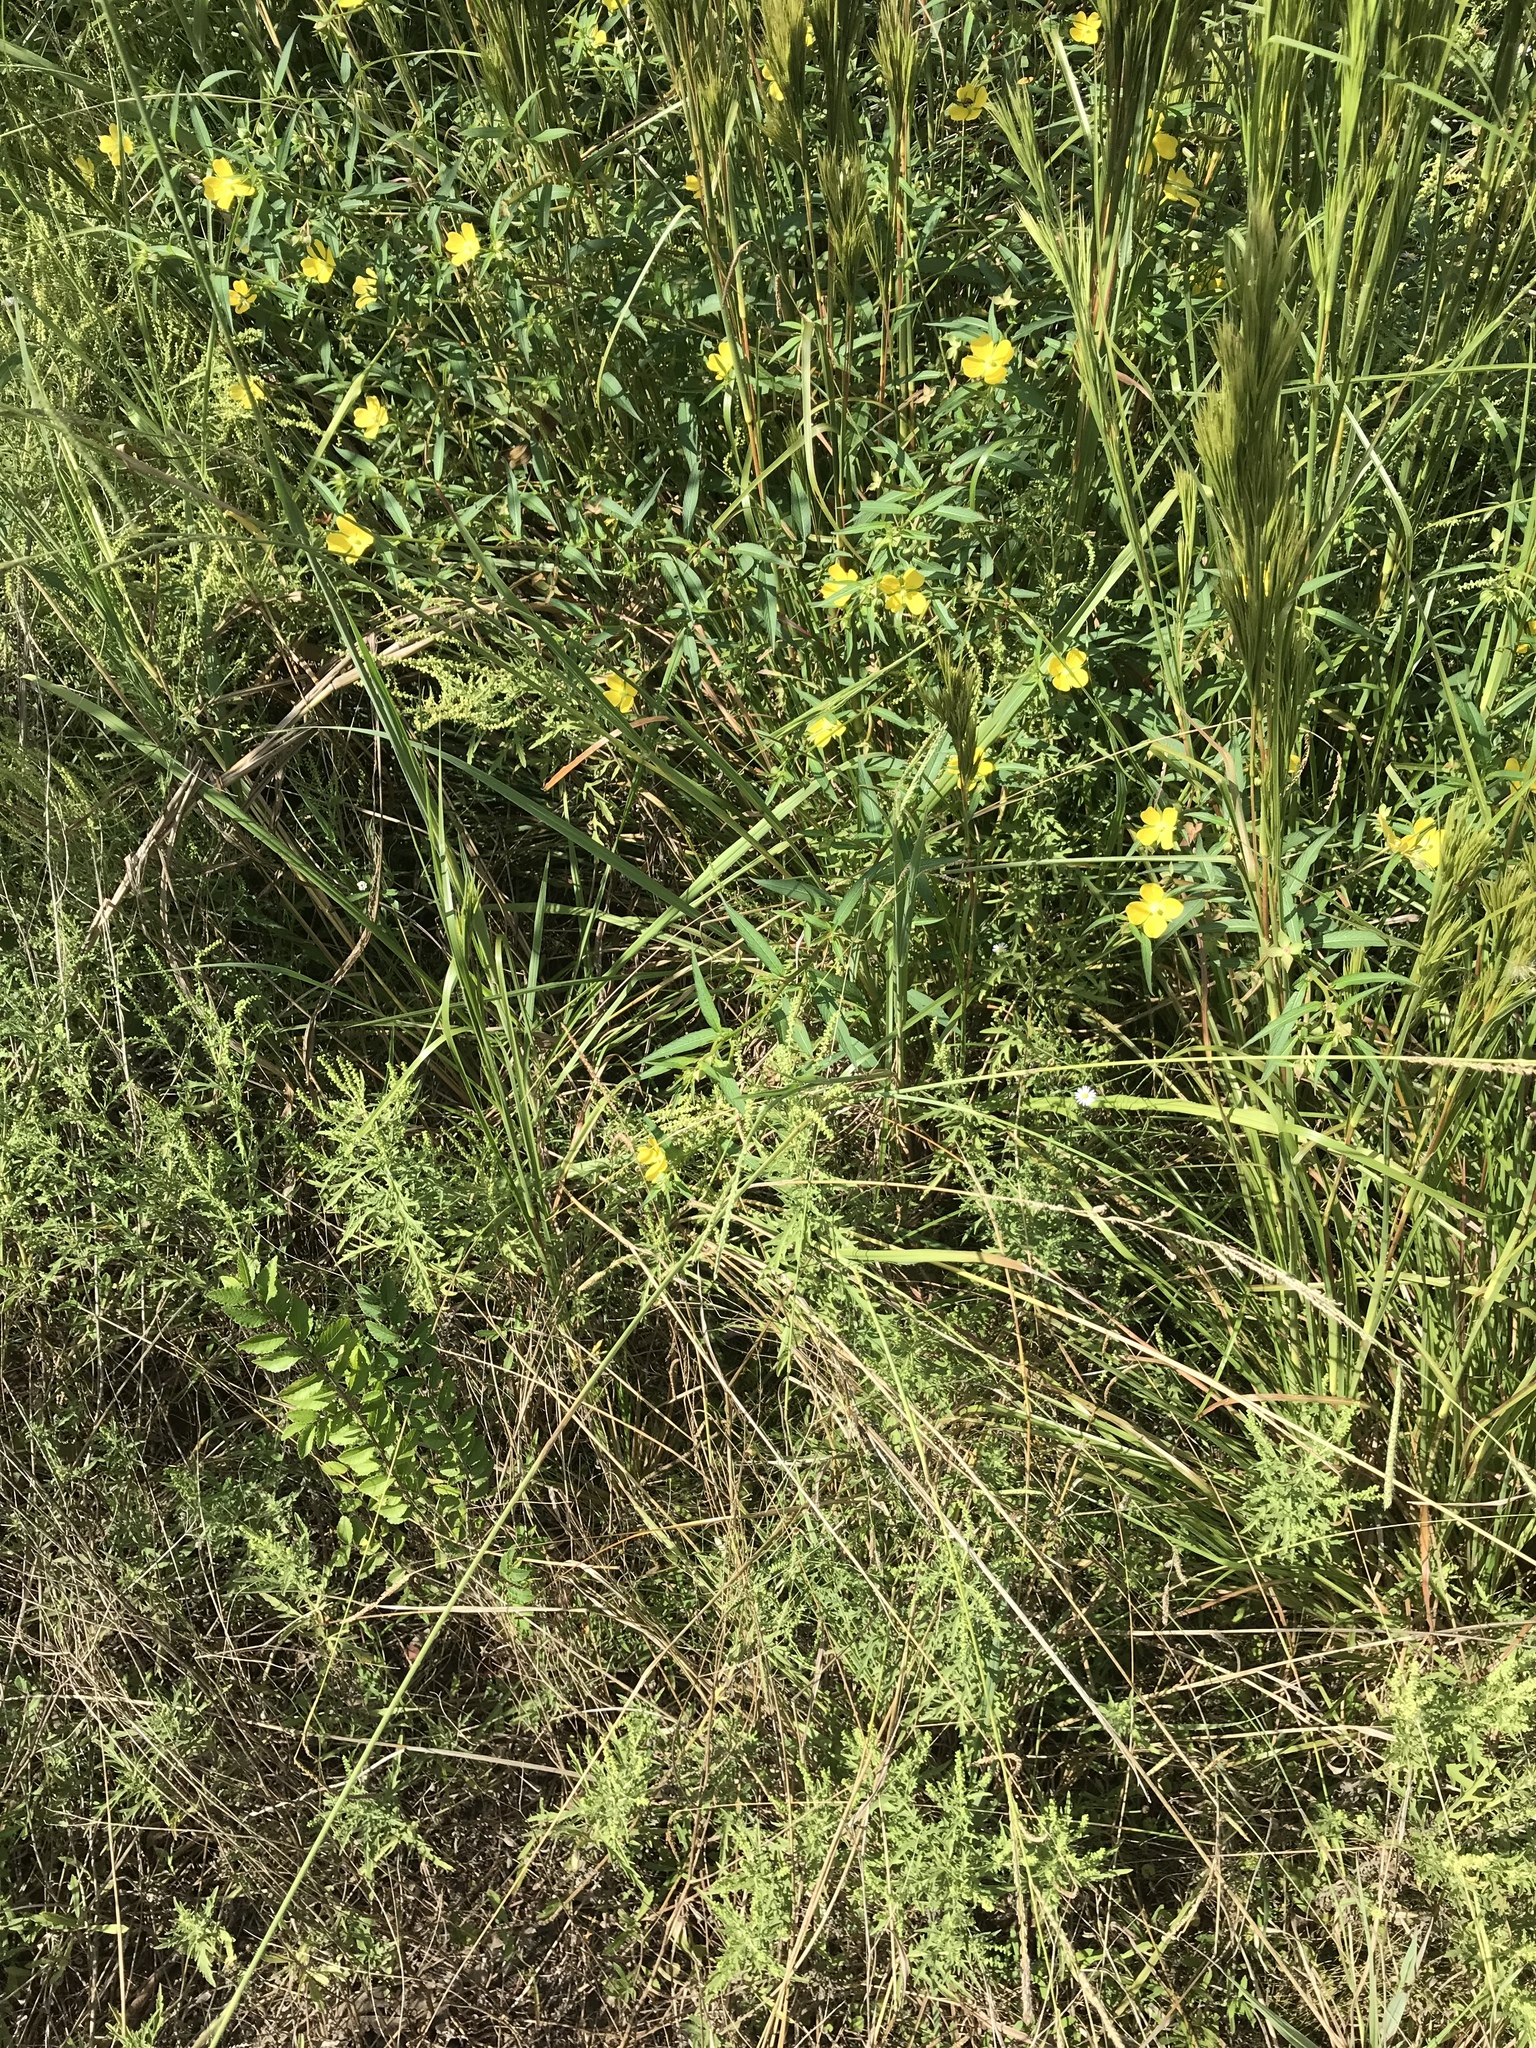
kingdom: Plantae
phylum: Tracheophyta
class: Magnoliopsida
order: Myrtales
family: Onagraceae
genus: Ludwigia
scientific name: Ludwigia octovalvis
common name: Water-primrose
